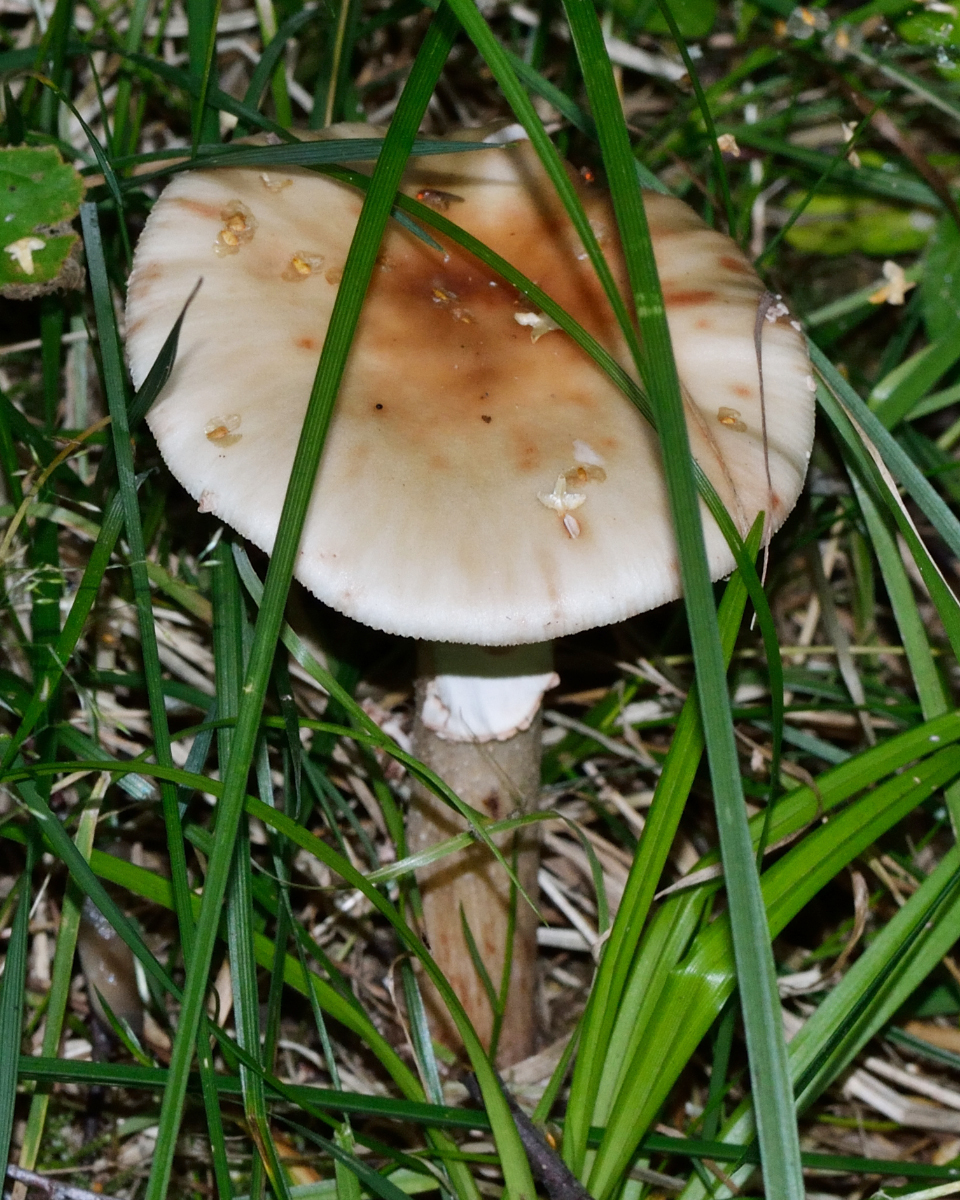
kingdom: Fungi
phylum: Basidiomycota
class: Agaricomycetes
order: Agaricales
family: Amanitaceae
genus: Amanita
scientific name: Amanita rubescens
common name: Blusher
